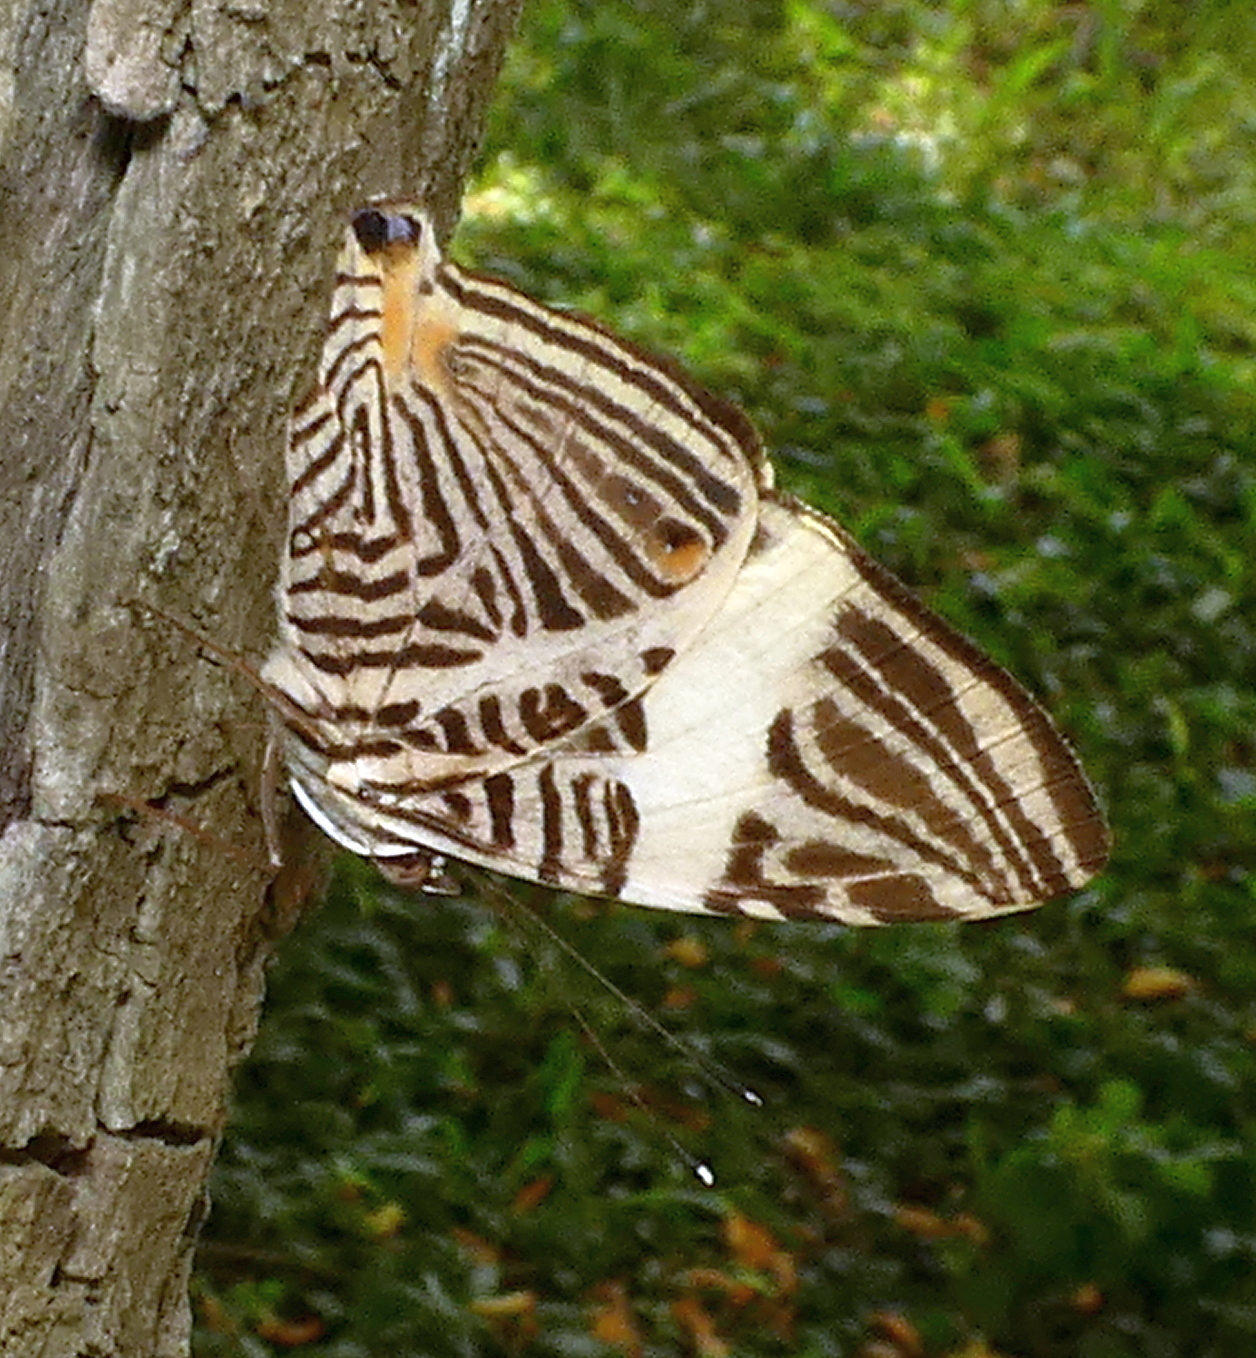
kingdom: Animalia
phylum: Arthropoda
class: Insecta
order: Lepidoptera
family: Nymphalidae
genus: Colobura
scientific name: Colobura dirce
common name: Dirce beauty
